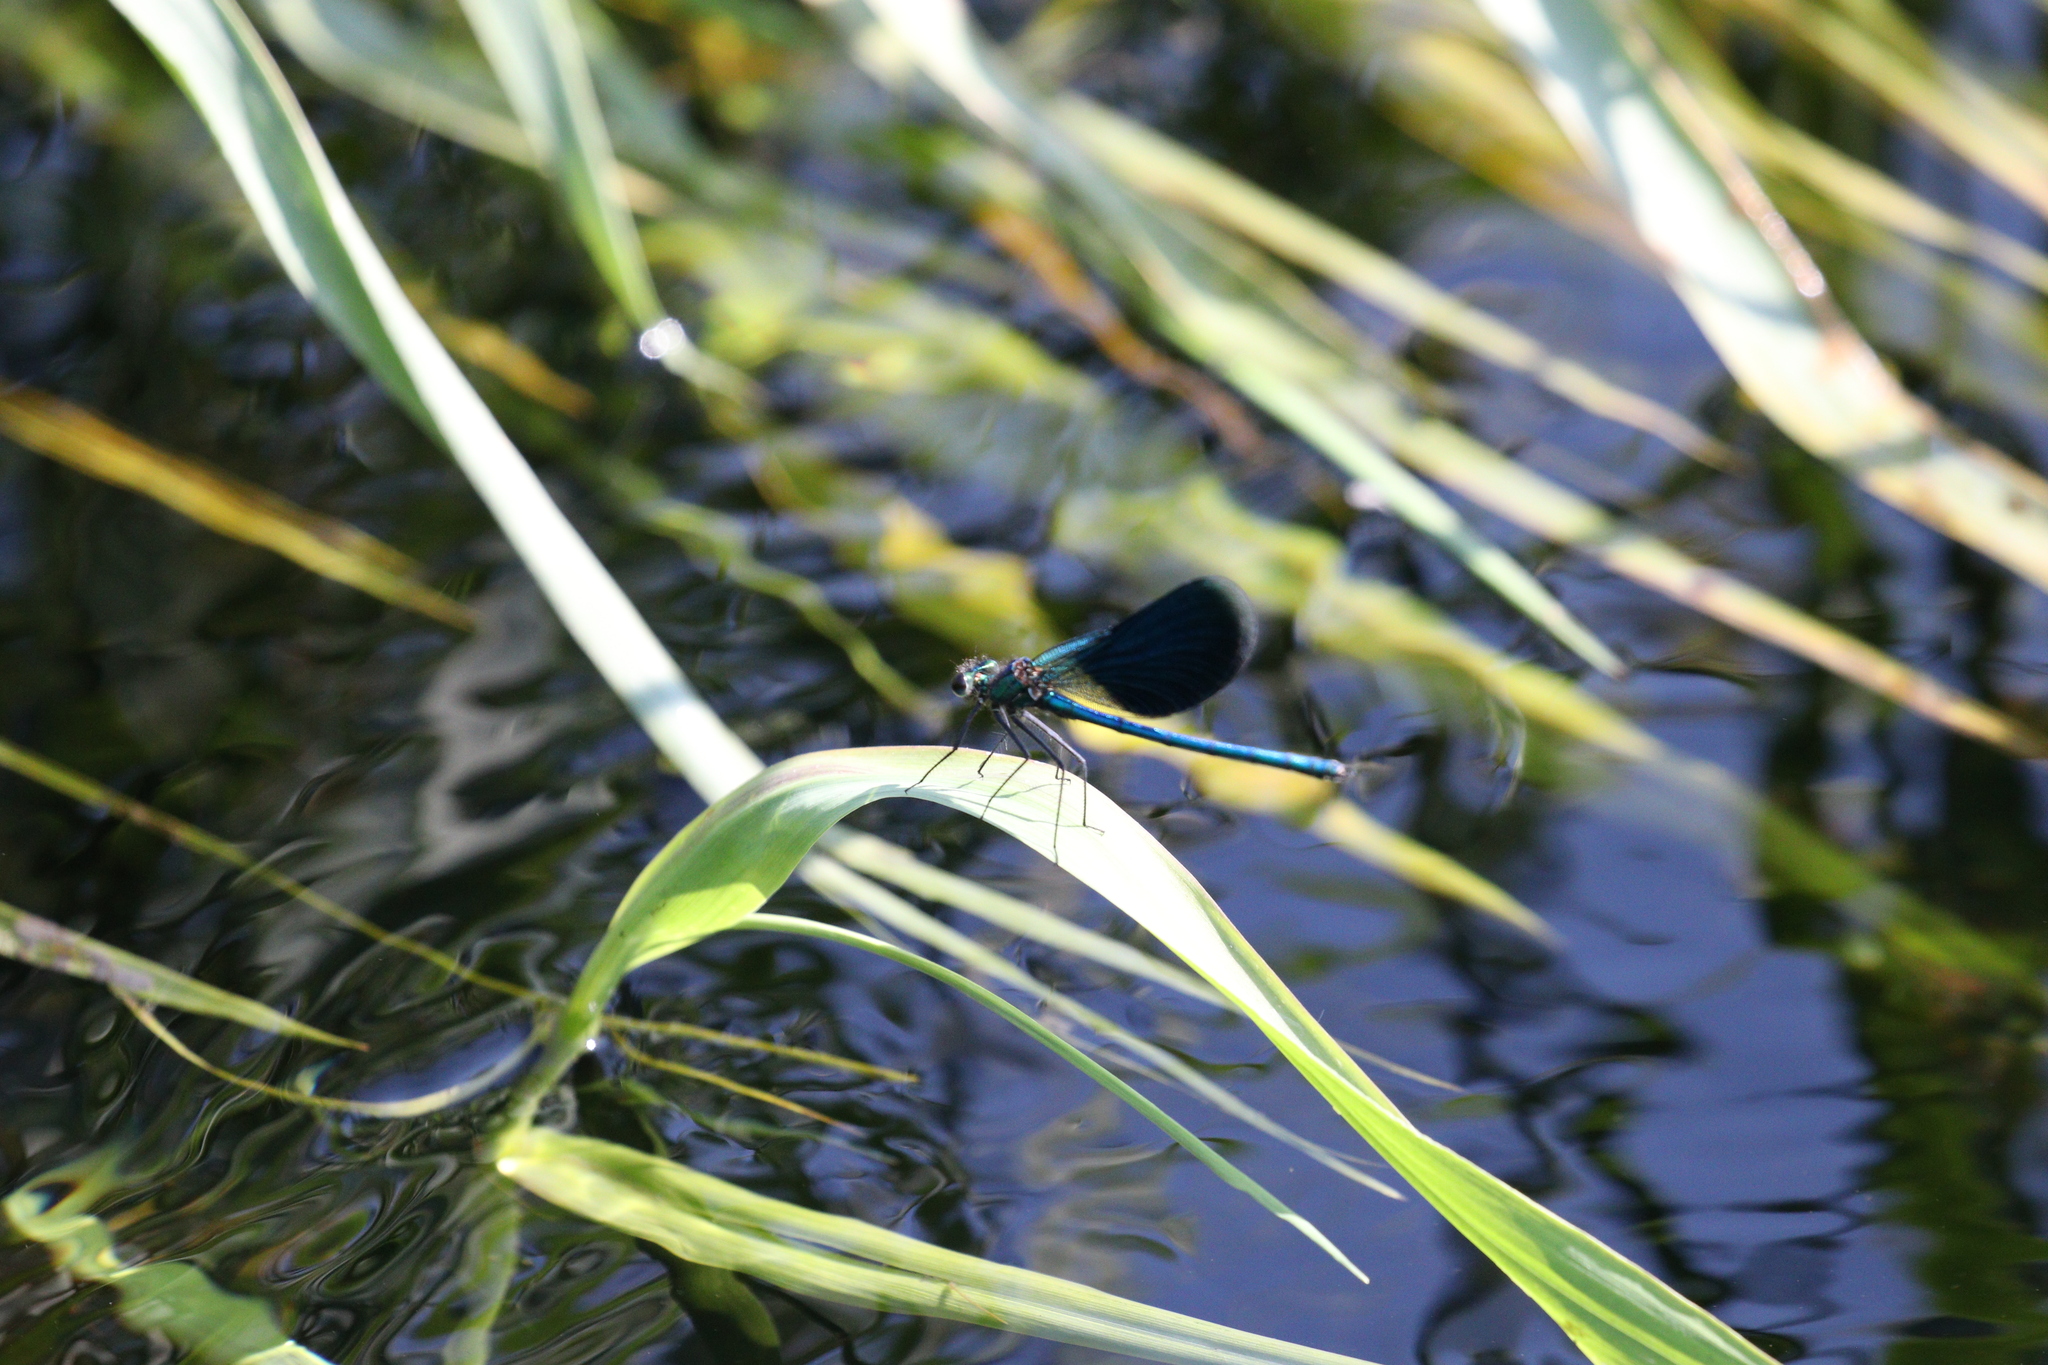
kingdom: Animalia
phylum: Arthropoda
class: Insecta
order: Odonata
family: Calopterygidae
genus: Calopteryx
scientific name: Calopteryx splendens
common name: Banded demoiselle
